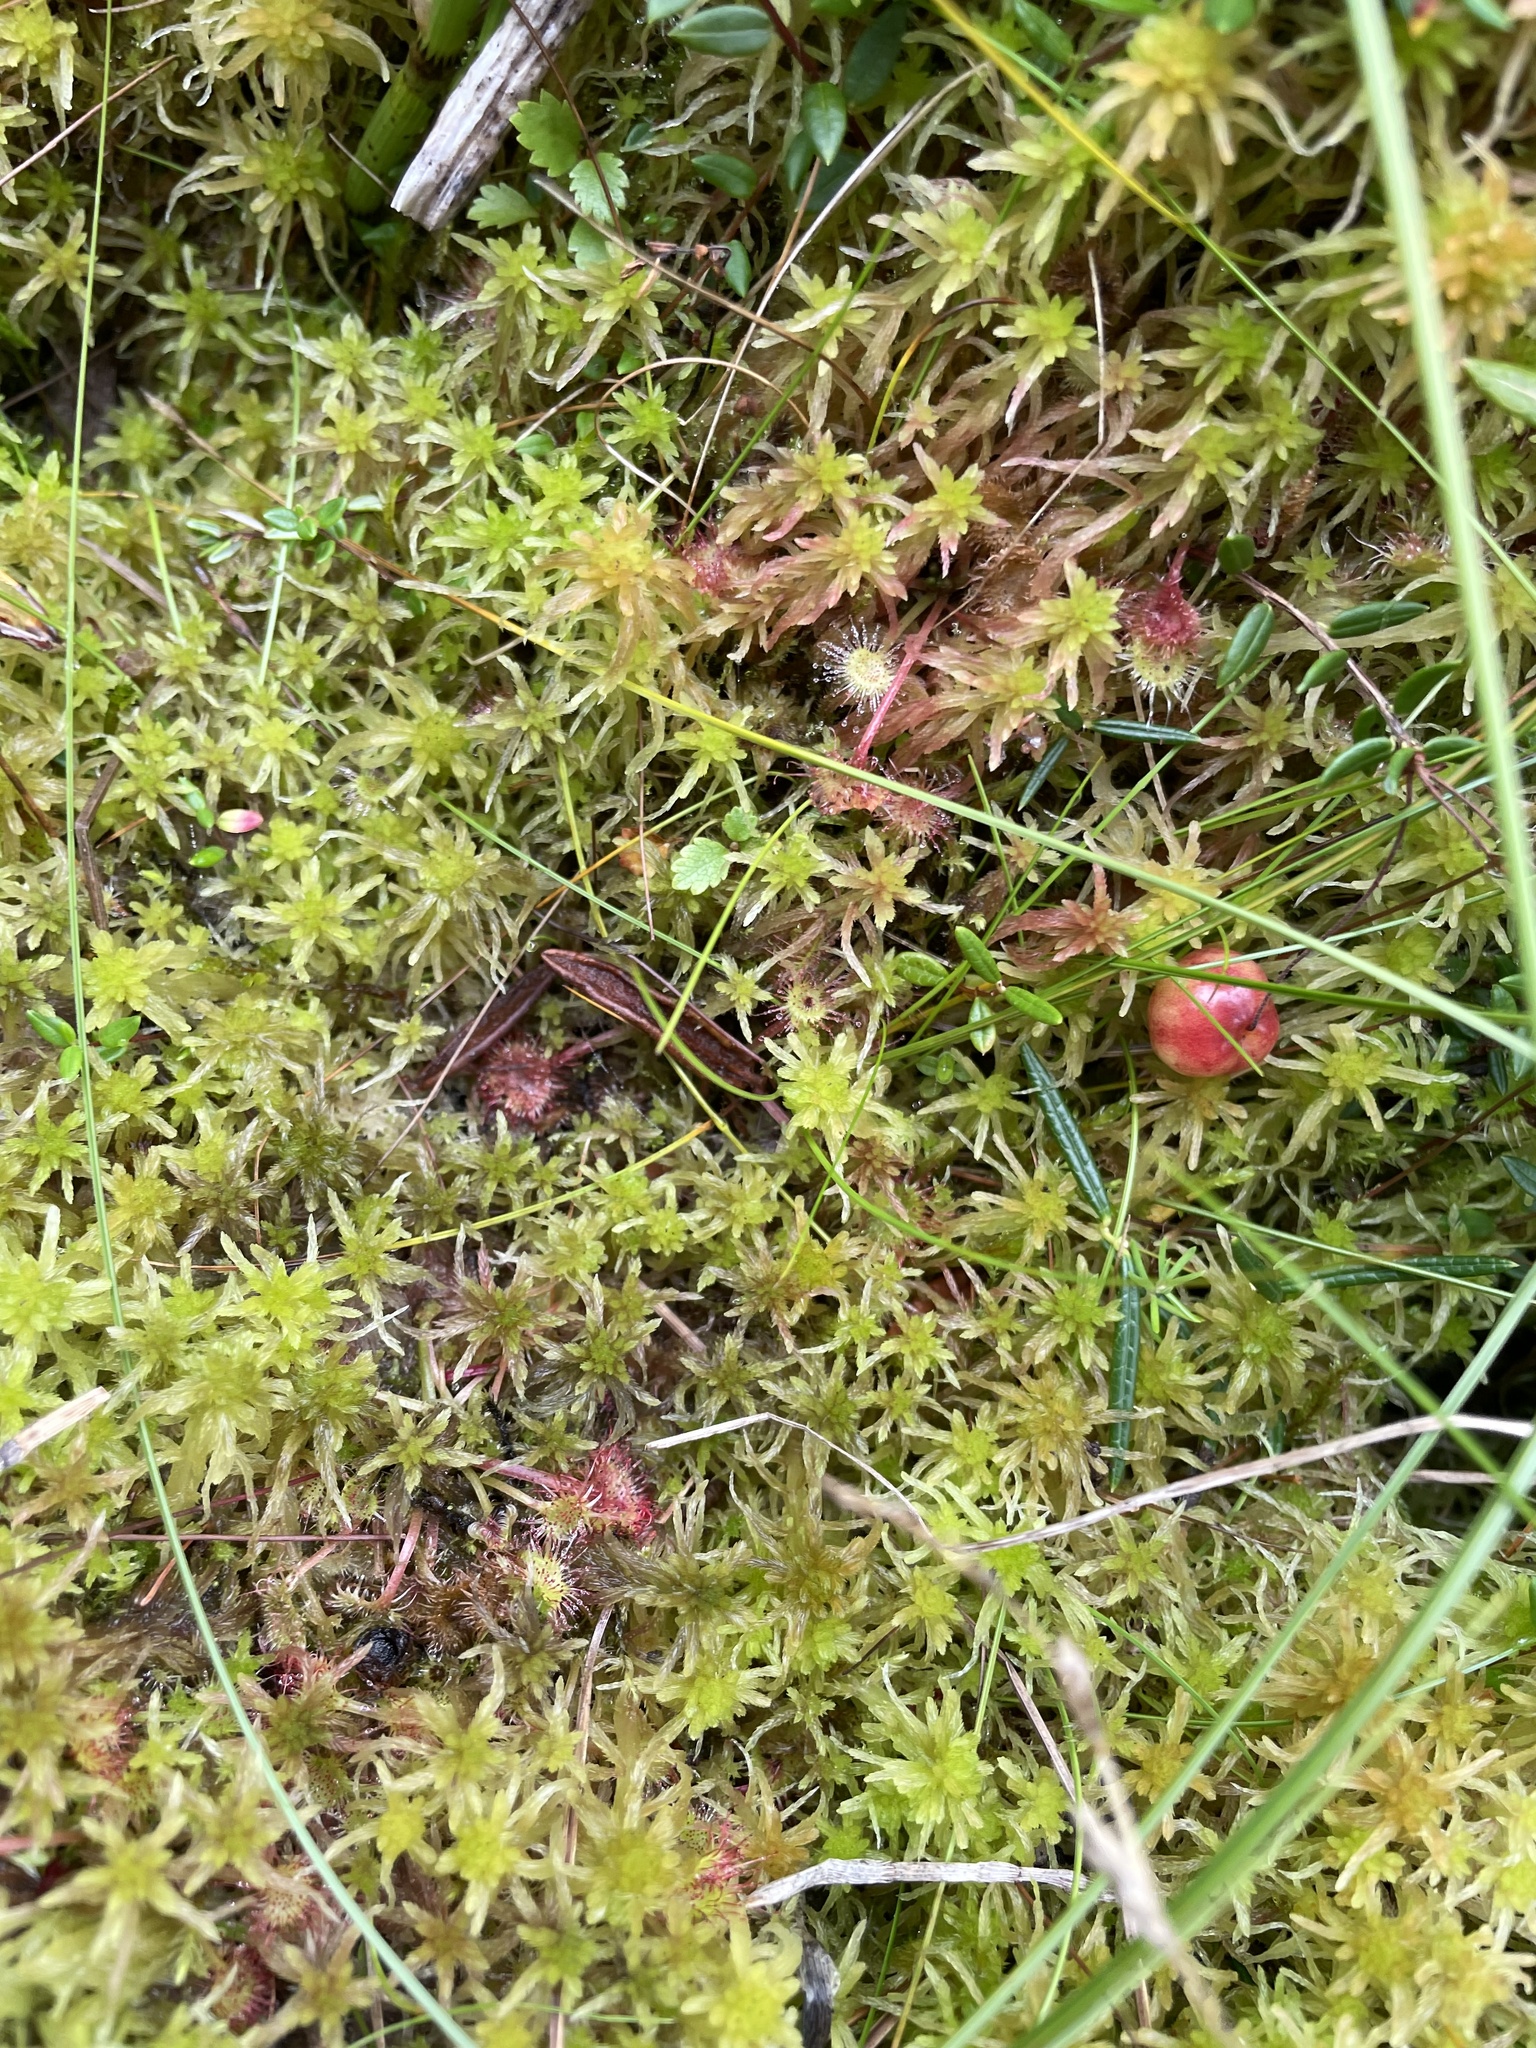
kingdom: Plantae
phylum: Tracheophyta
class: Magnoliopsida
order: Caryophyllales
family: Droseraceae
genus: Drosera
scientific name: Drosera rotundifolia
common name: Round-leaved sundew
